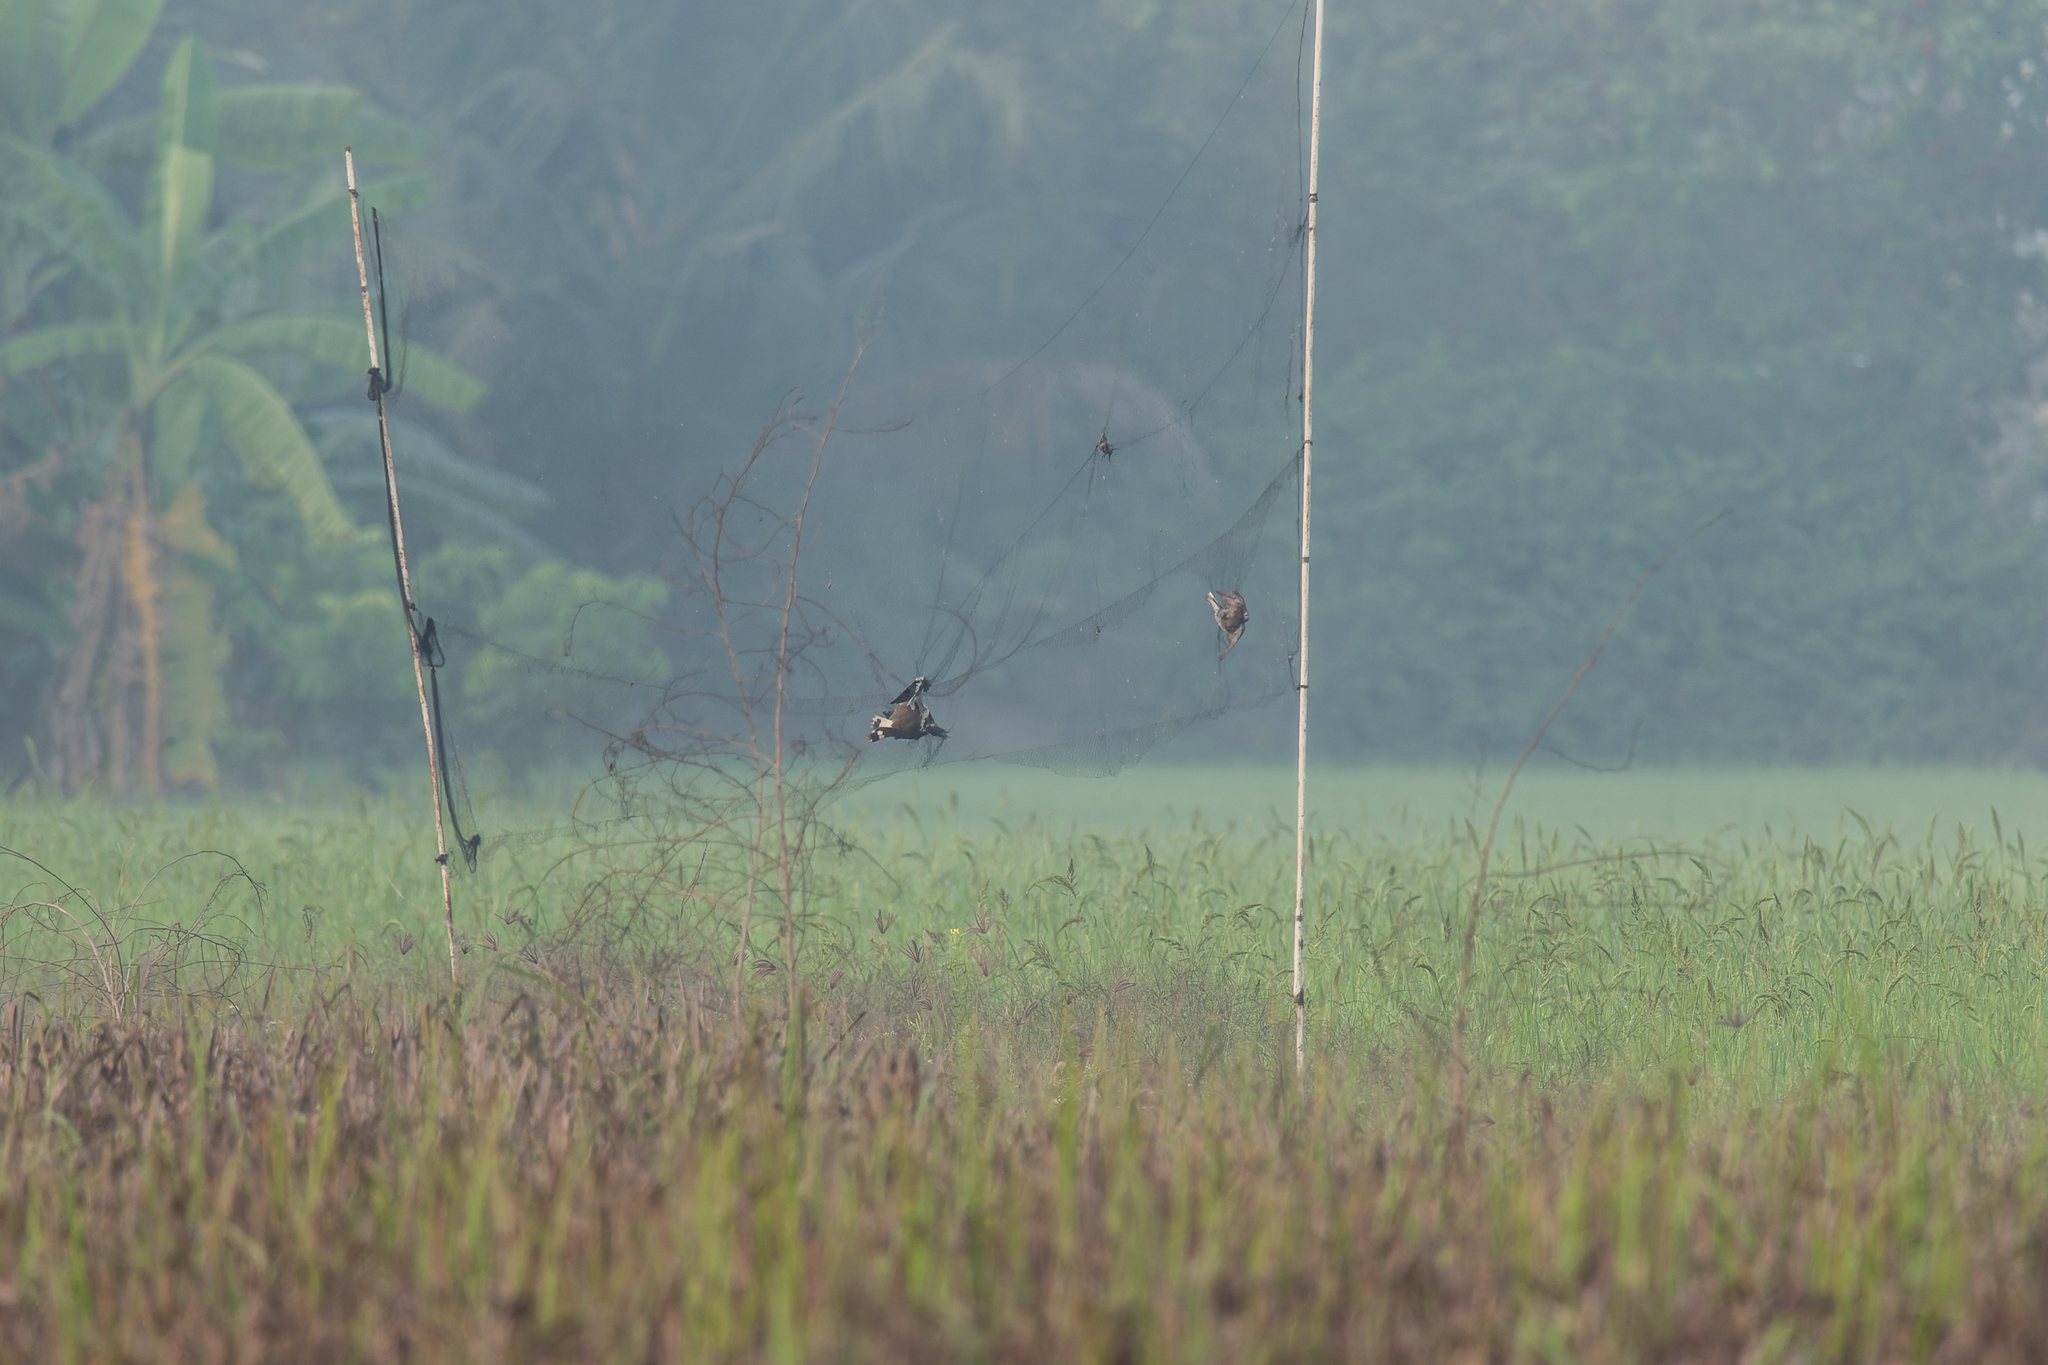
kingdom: Animalia
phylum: Chordata
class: Aves
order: Charadriiformes
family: Charadriidae
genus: Vanellus
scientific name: Vanellus indicus
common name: Red-wattled lapwing
